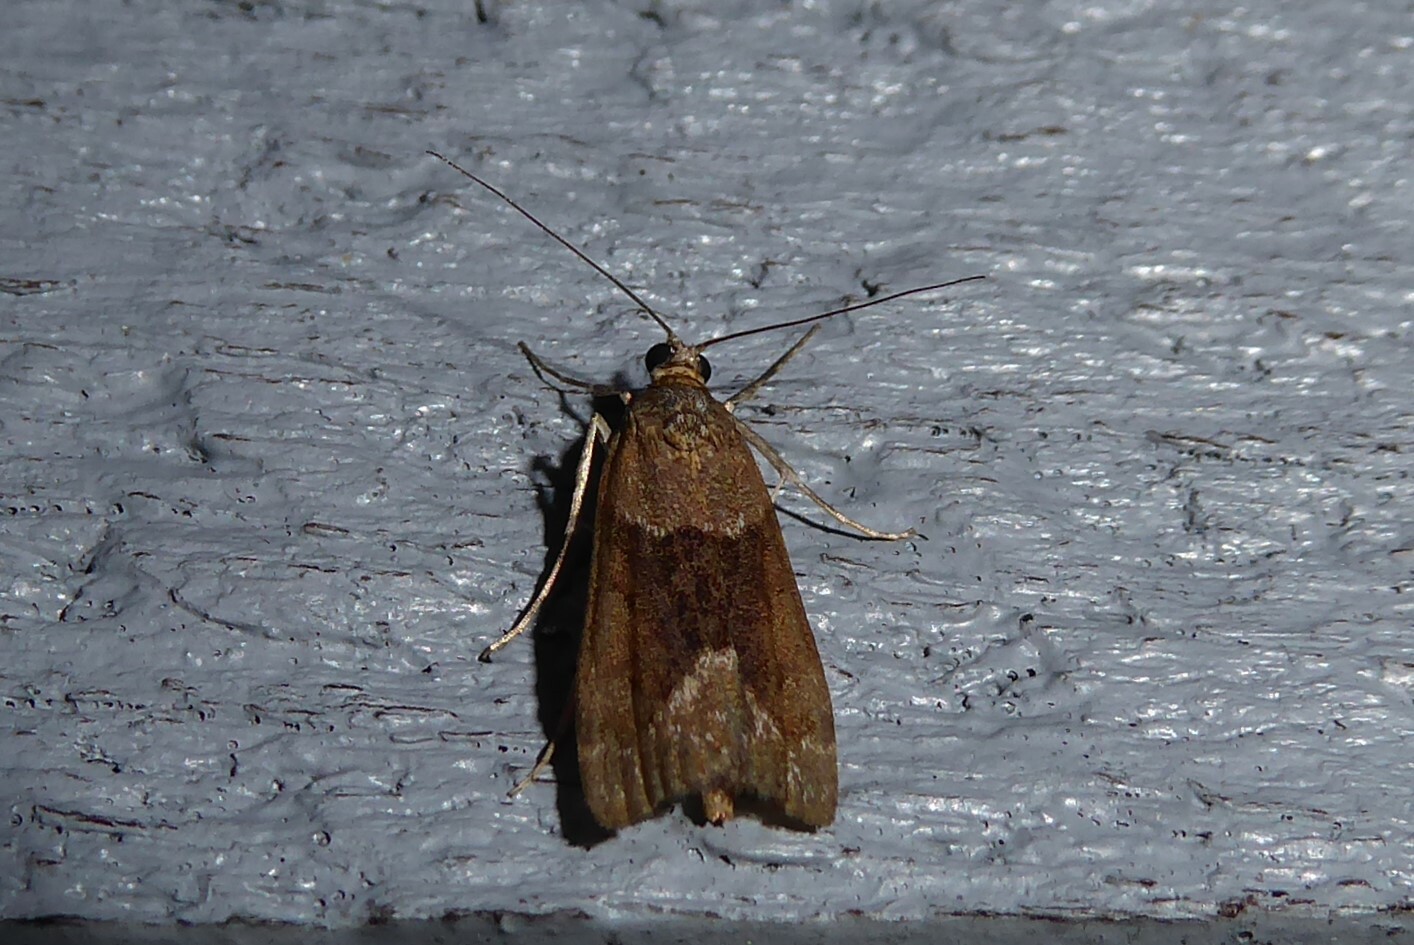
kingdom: Animalia
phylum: Arthropoda
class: Insecta
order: Lepidoptera
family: Crambidae
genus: Eudonia
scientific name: Eudonia submarginalis
